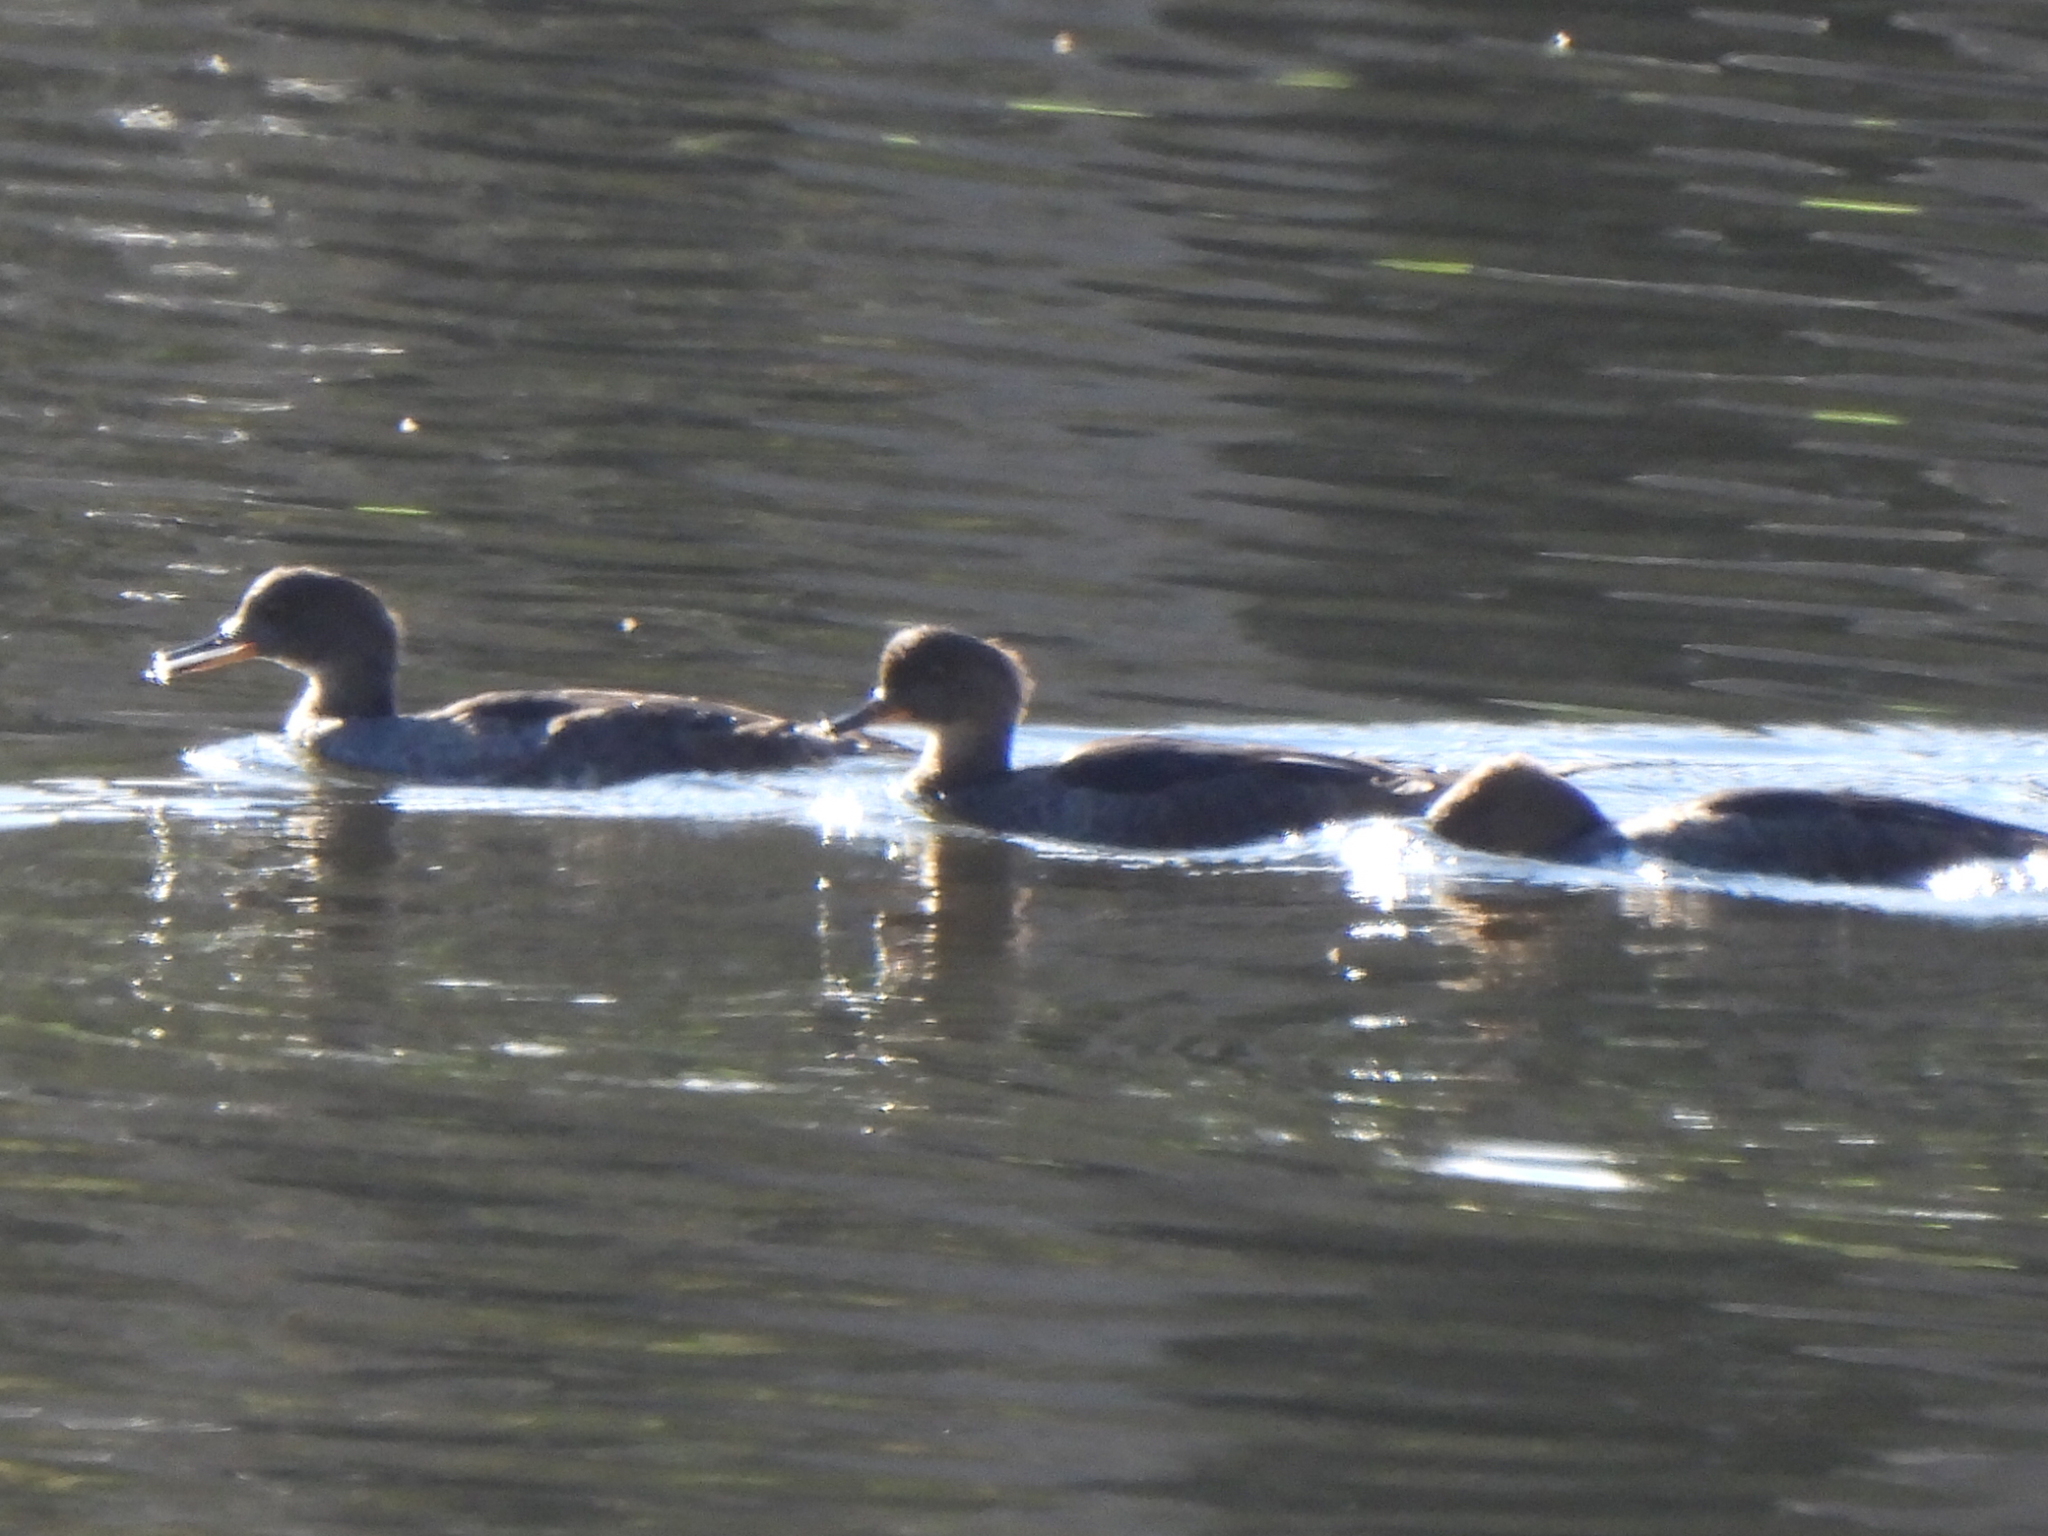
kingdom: Animalia
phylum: Chordata
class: Aves
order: Anseriformes
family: Anatidae
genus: Lophodytes
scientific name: Lophodytes cucullatus
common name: Hooded merganser
